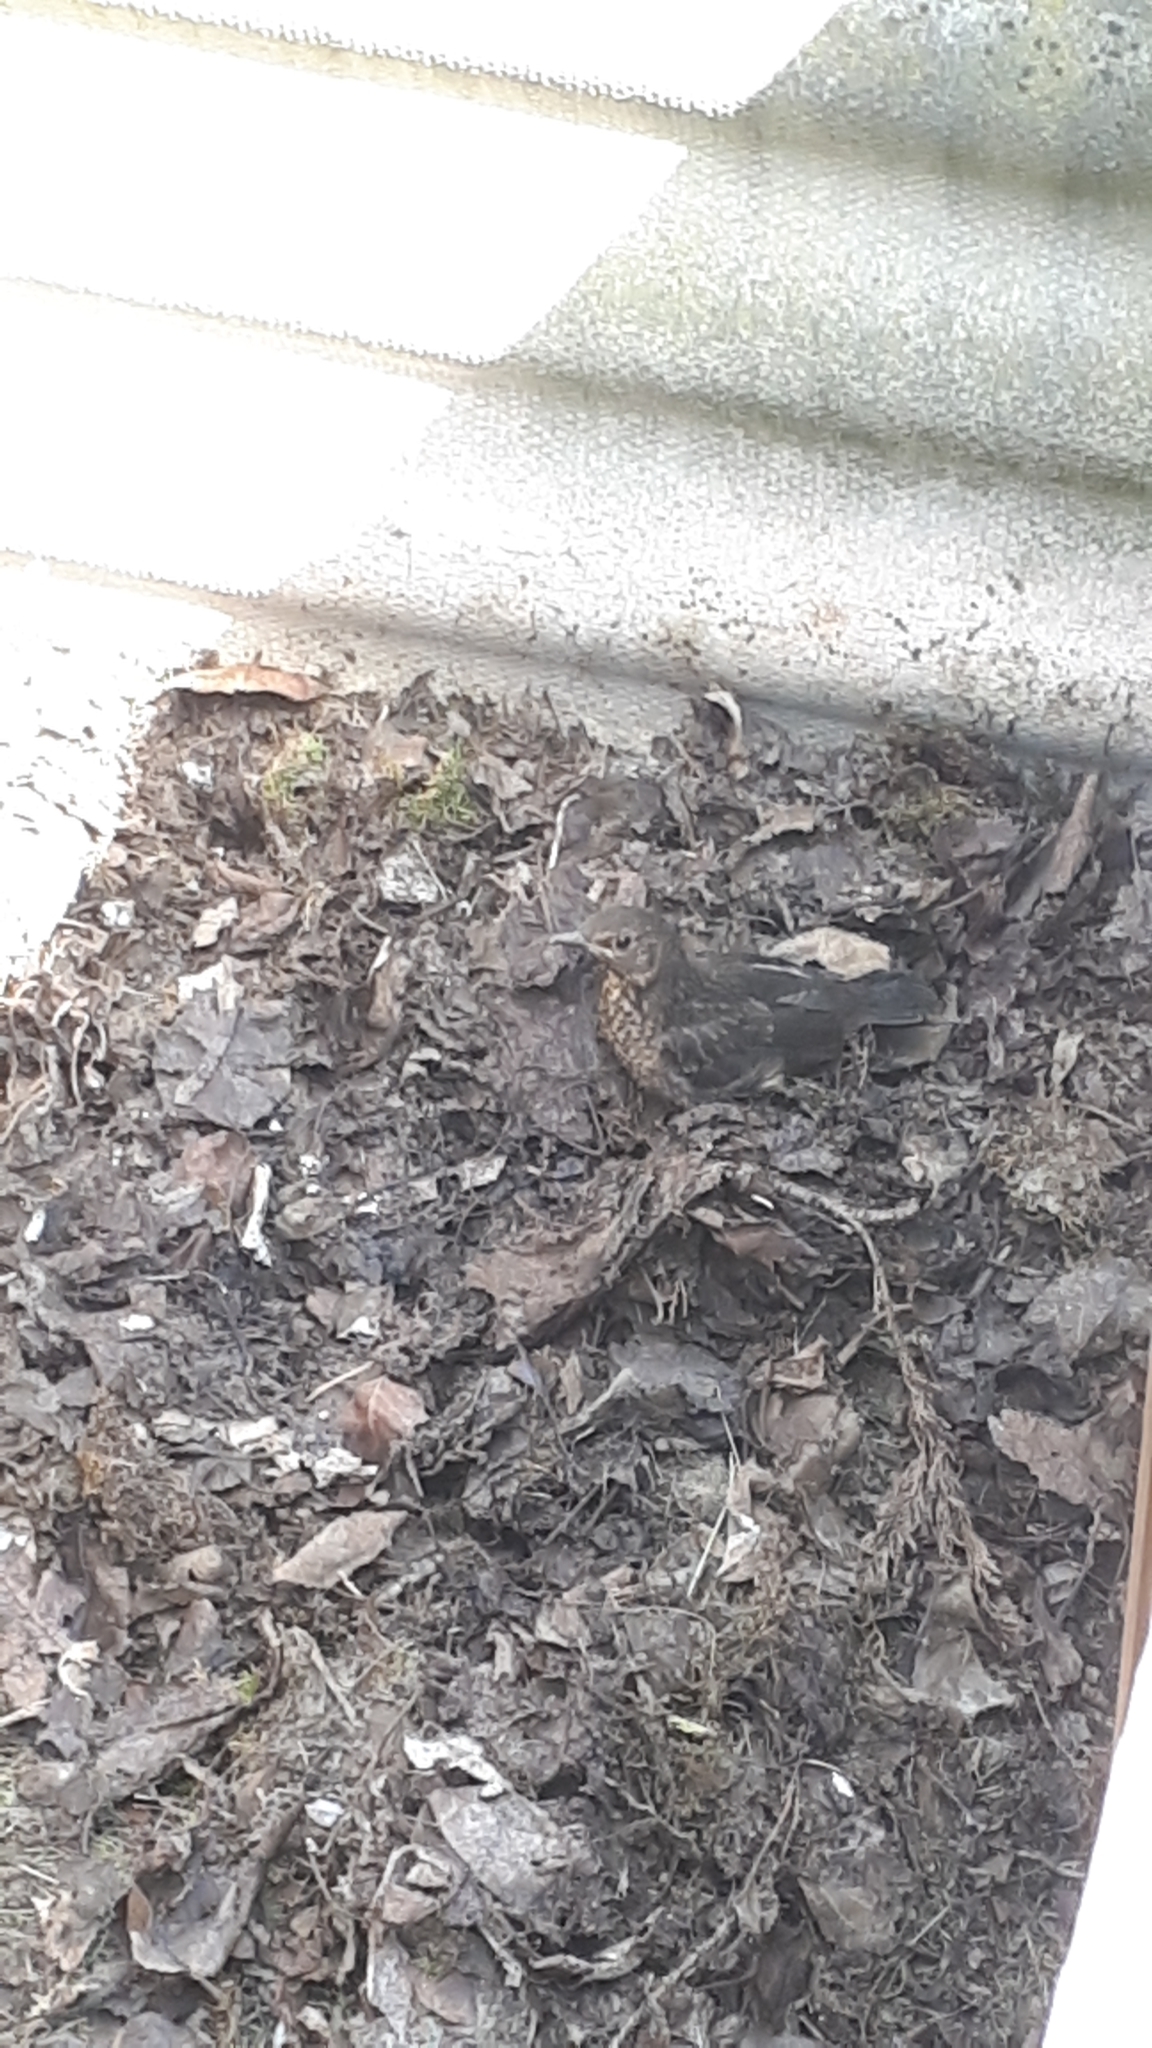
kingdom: Animalia
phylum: Chordata
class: Aves
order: Passeriformes
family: Turdidae
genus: Turdus
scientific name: Turdus merula
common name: Common blackbird
